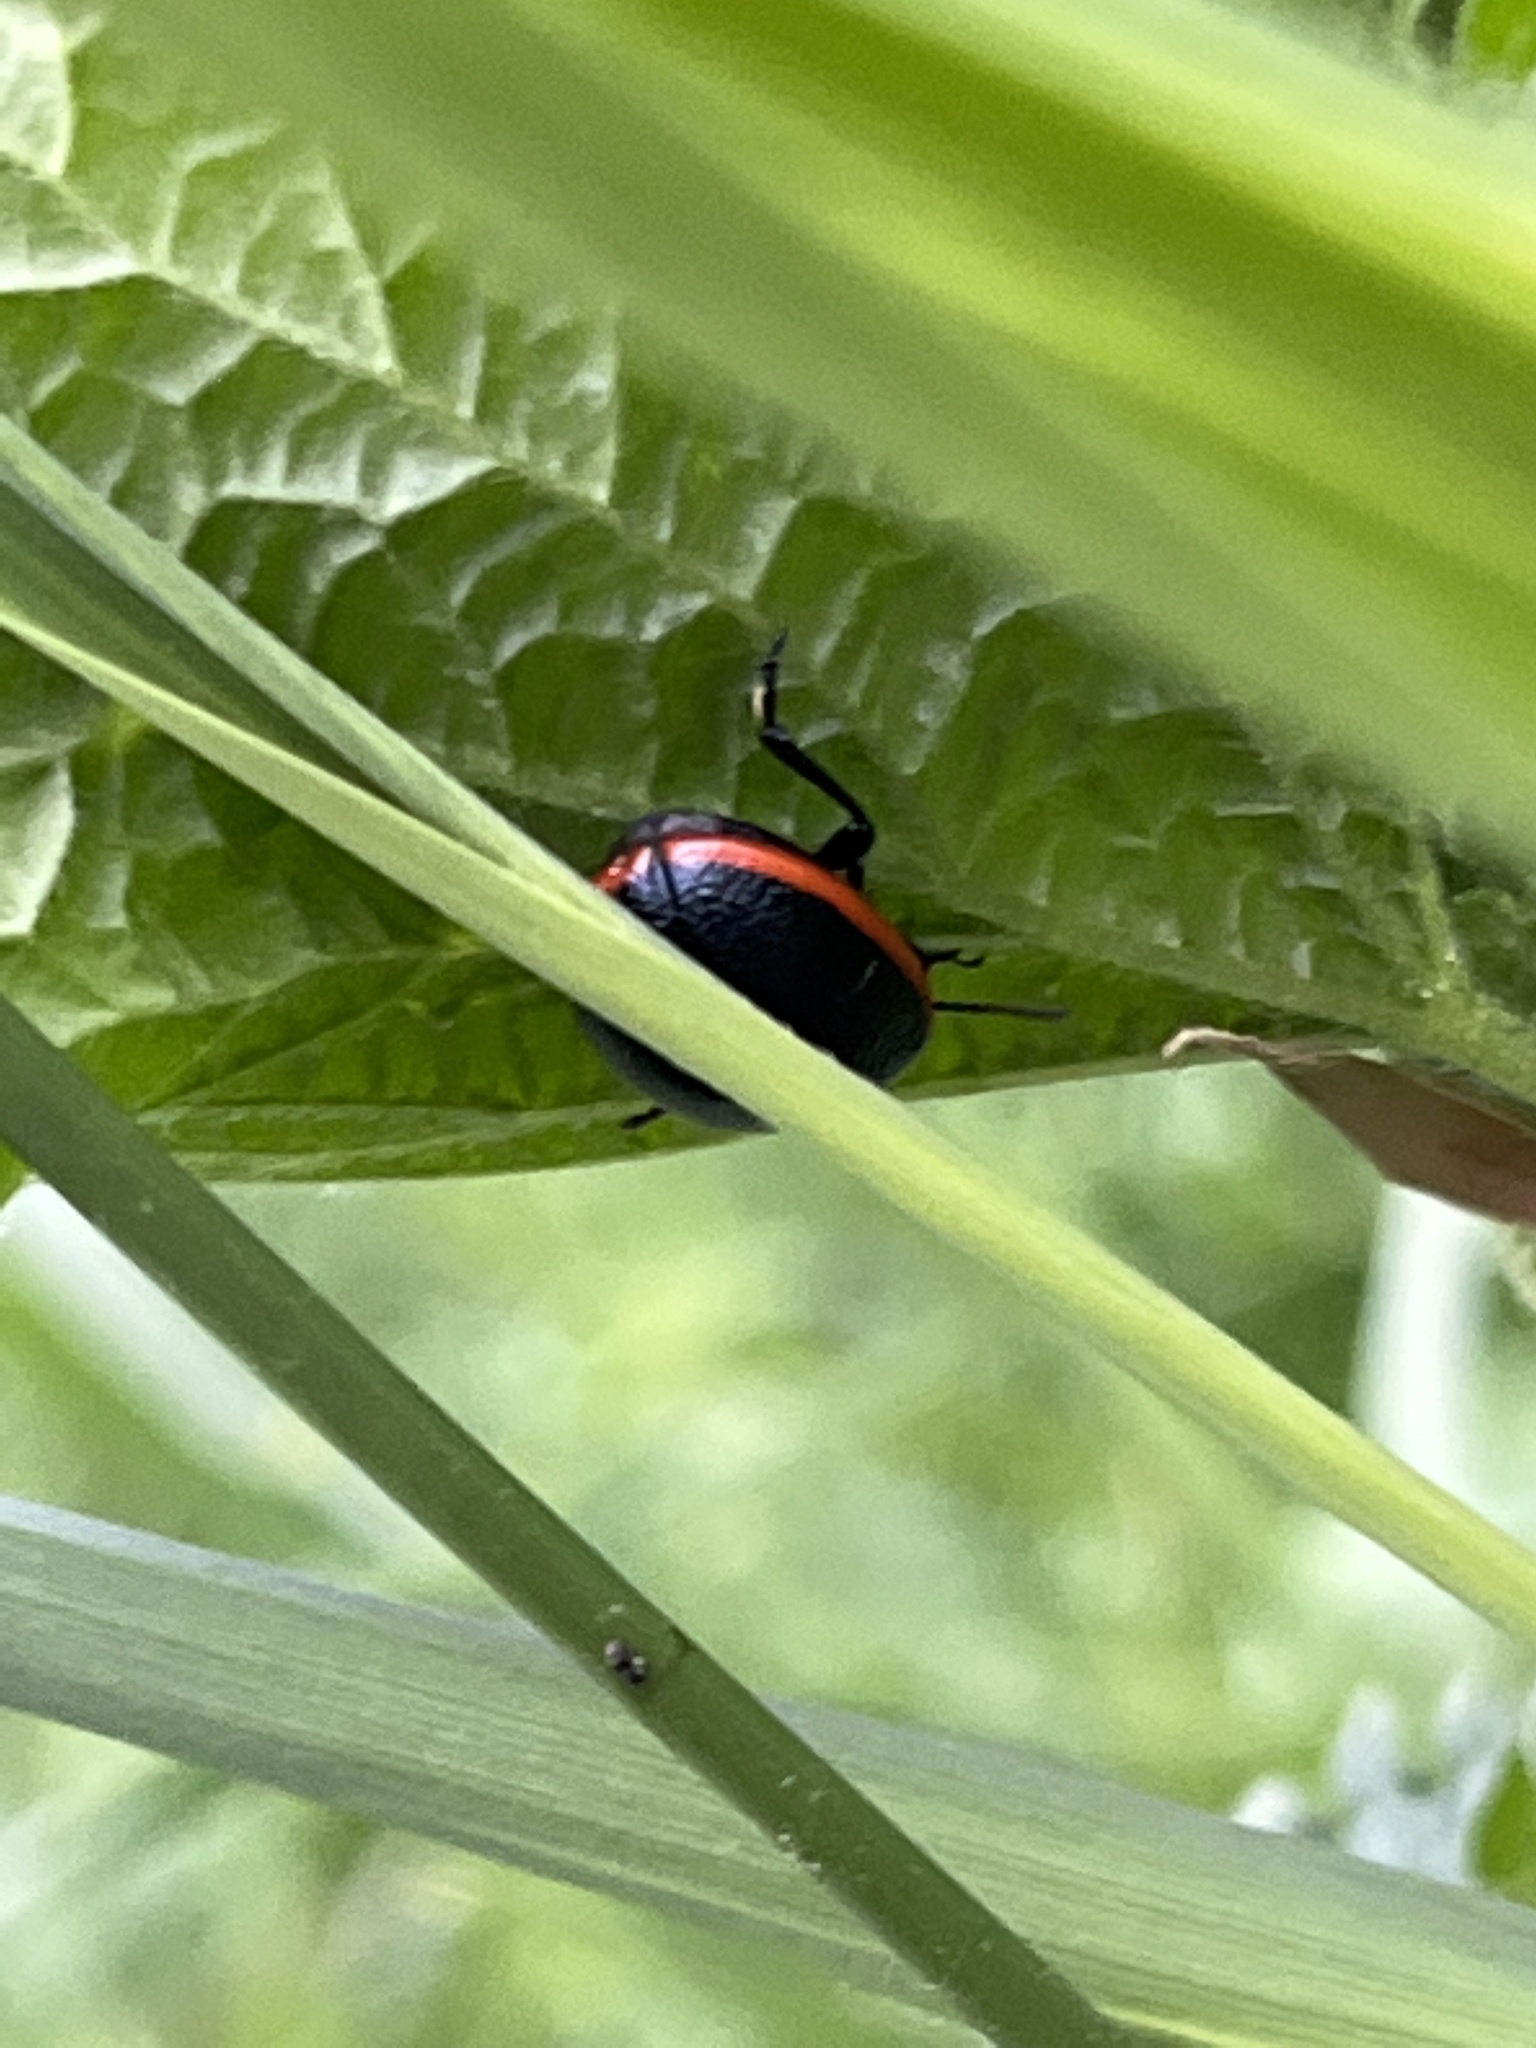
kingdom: Animalia
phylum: Arthropoda
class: Insecta
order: Coleoptera
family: Chrysomelidae
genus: Chrysolina
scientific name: Chrysolina rossia
